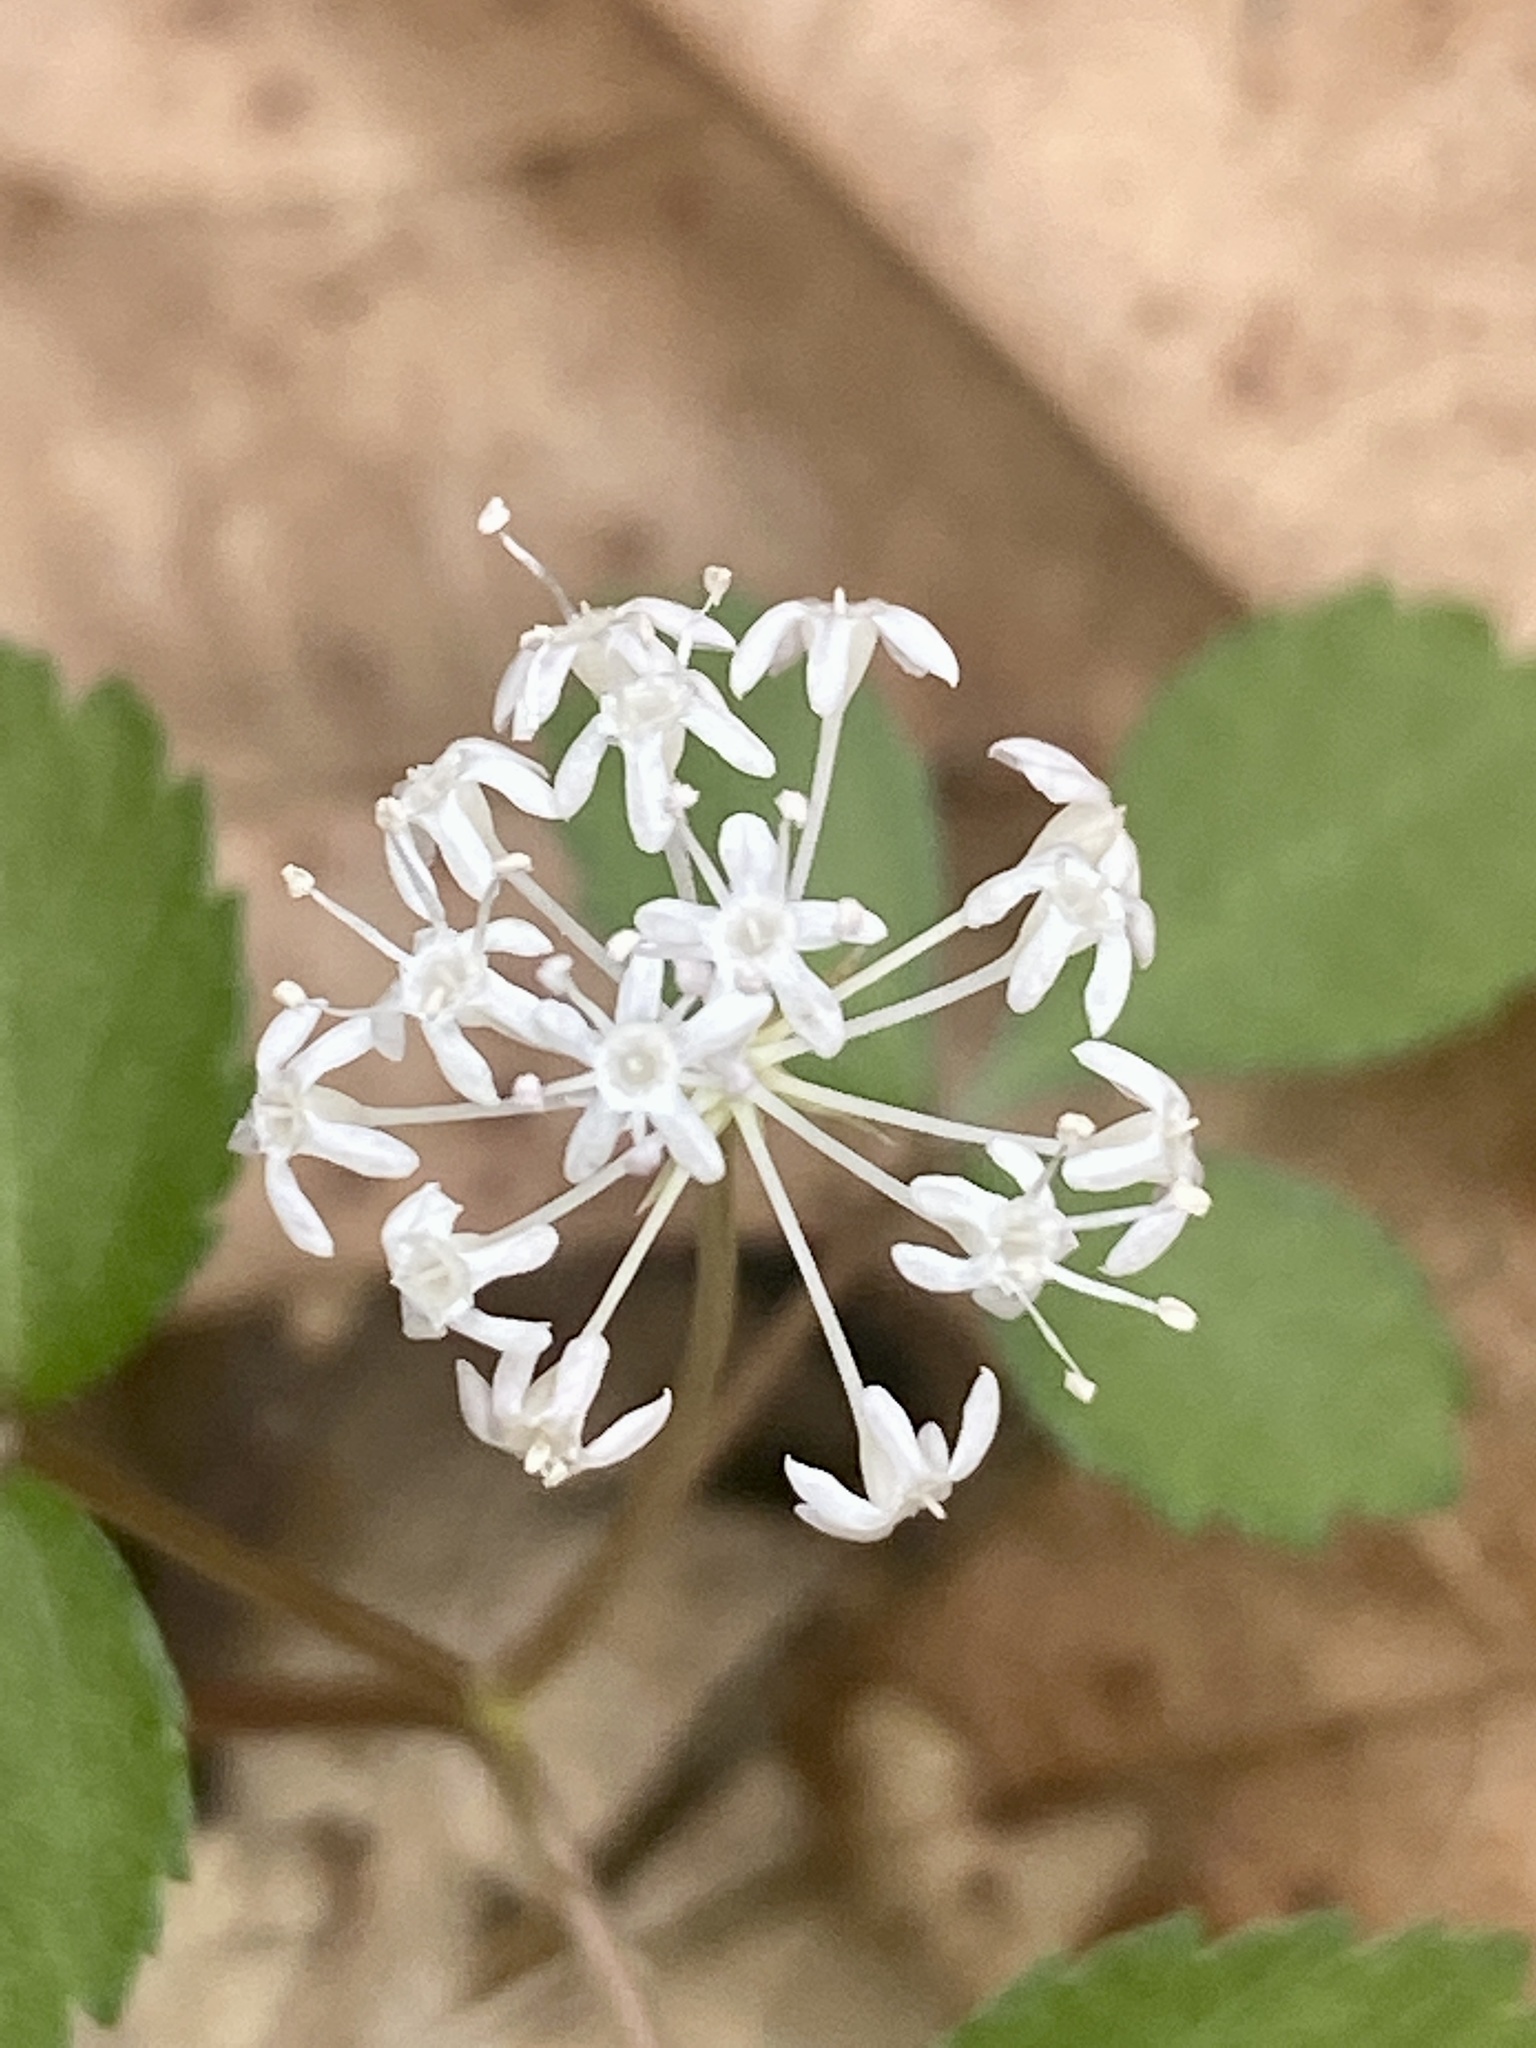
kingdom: Plantae
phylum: Tracheophyta
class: Magnoliopsida
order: Apiales
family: Araliaceae
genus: Panax
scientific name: Panax trifolius
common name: Dwarf ginseng
